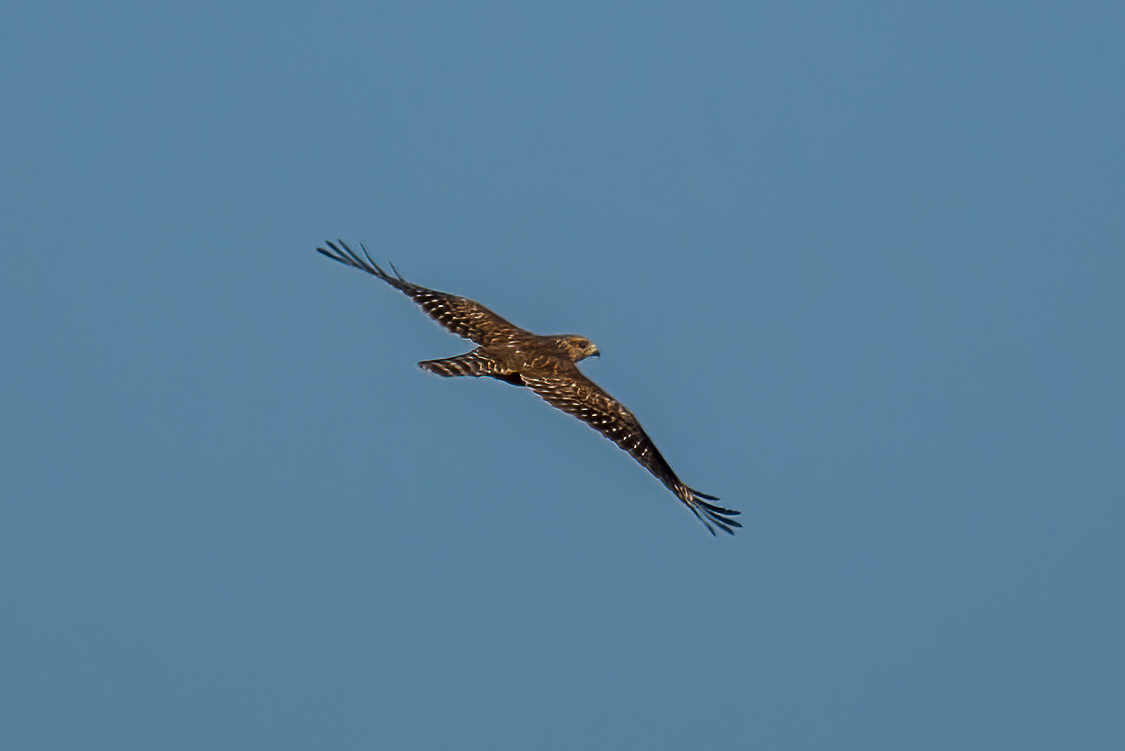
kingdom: Animalia
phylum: Chordata
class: Aves
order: Accipitriformes
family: Accipitridae
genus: Buteo
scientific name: Buteo lineatus
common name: Red-shouldered hawk
